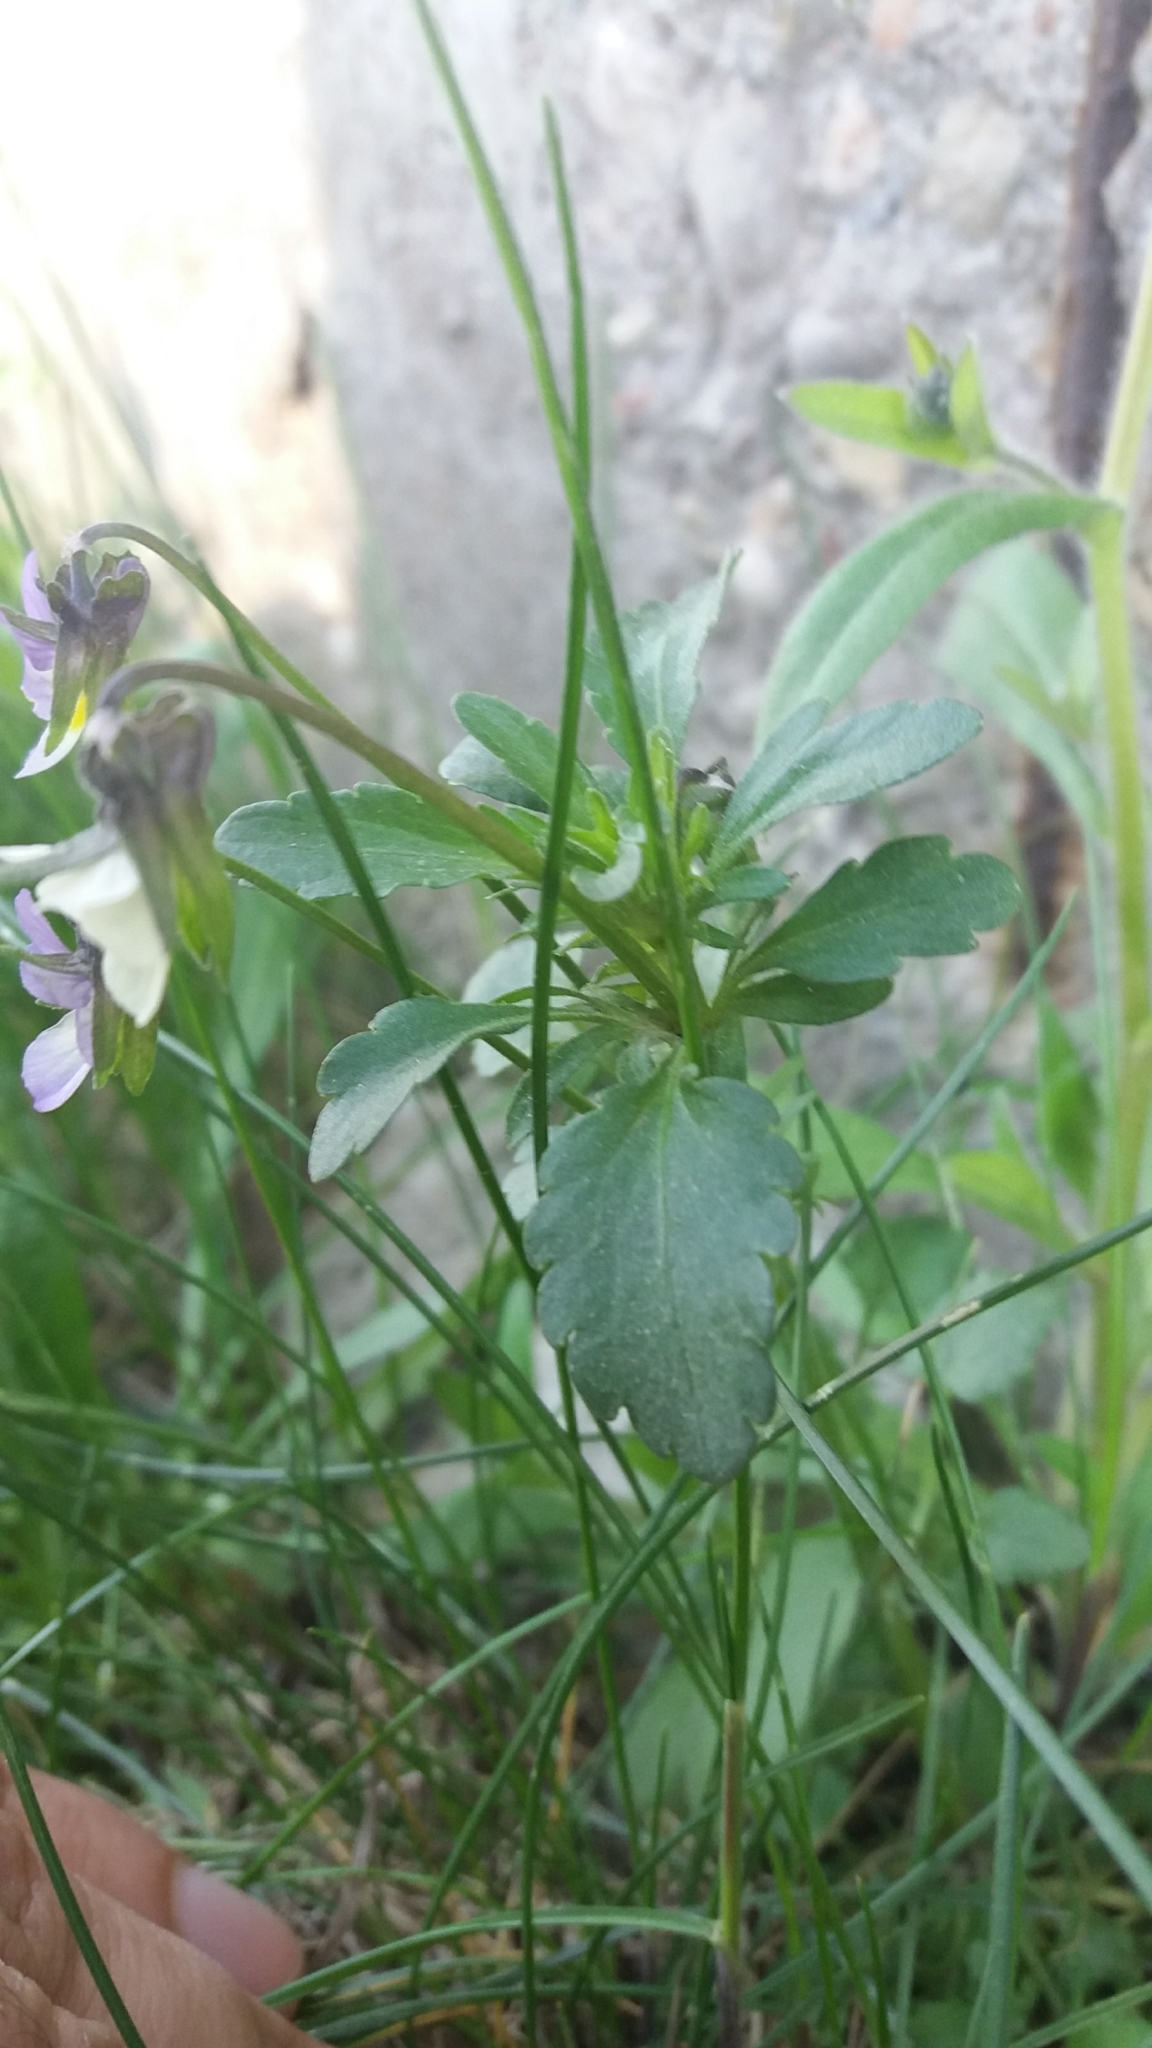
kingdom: Plantae
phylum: Tracheophyta
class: Magnoliopsida
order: Malpighiales
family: Violaceae
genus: Viola
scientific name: Viola
